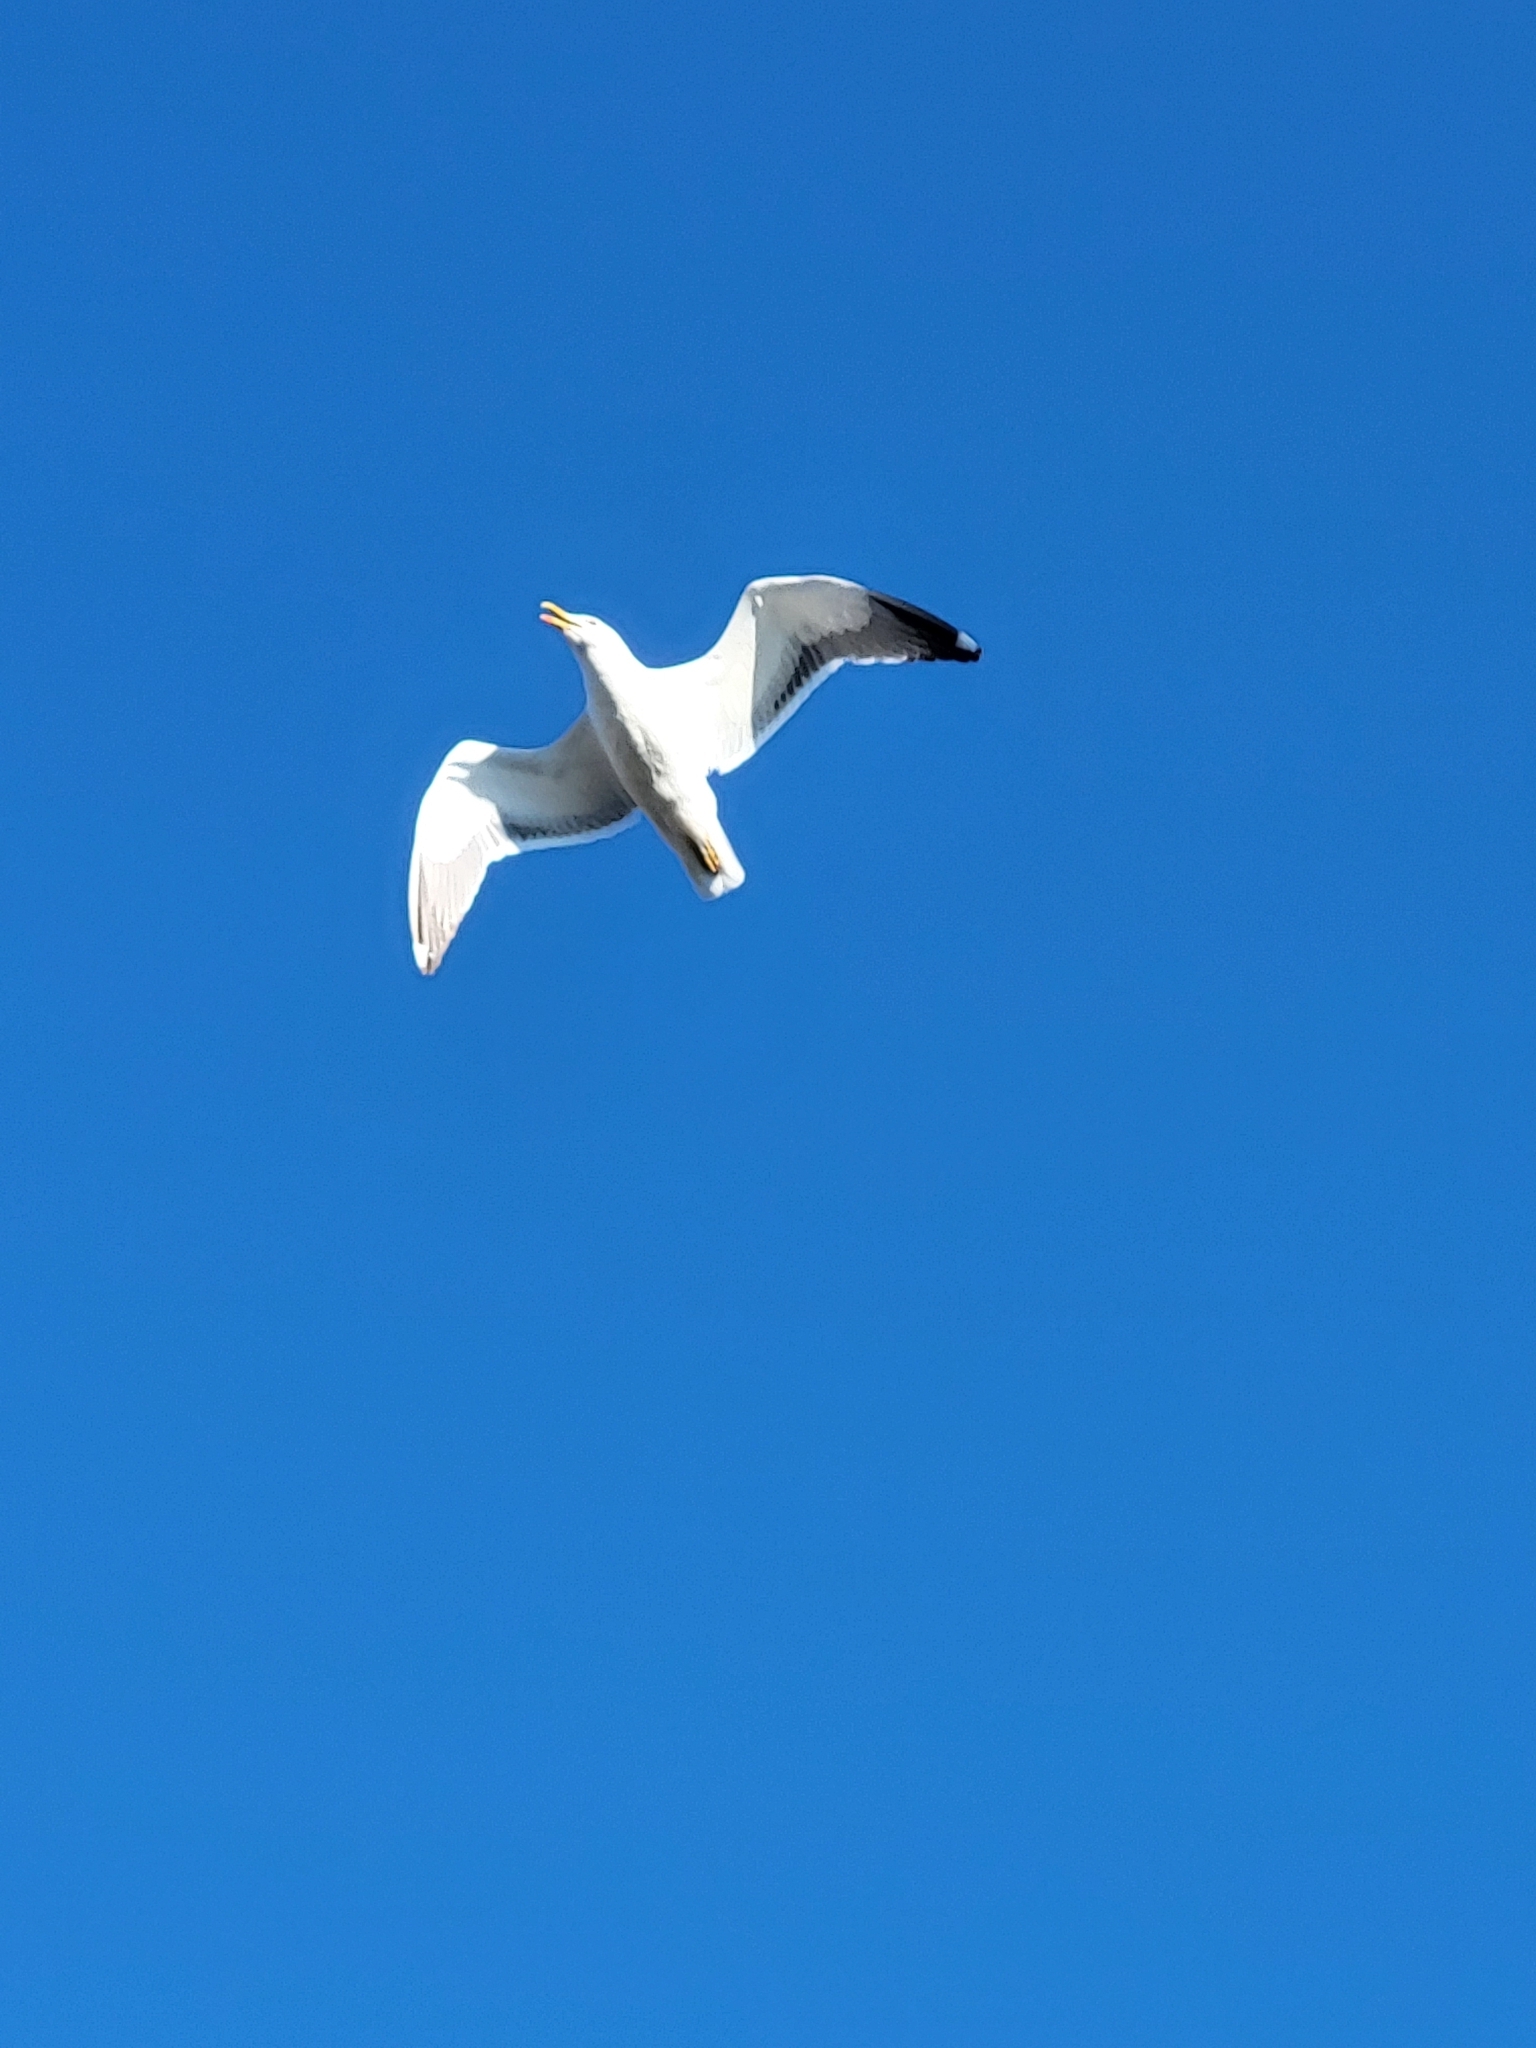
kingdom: Animalia
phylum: Chordata
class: Aves
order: Charadriiformes
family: Laridae
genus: Larus
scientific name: Larus fuscus
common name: Lesser black-backed gull
